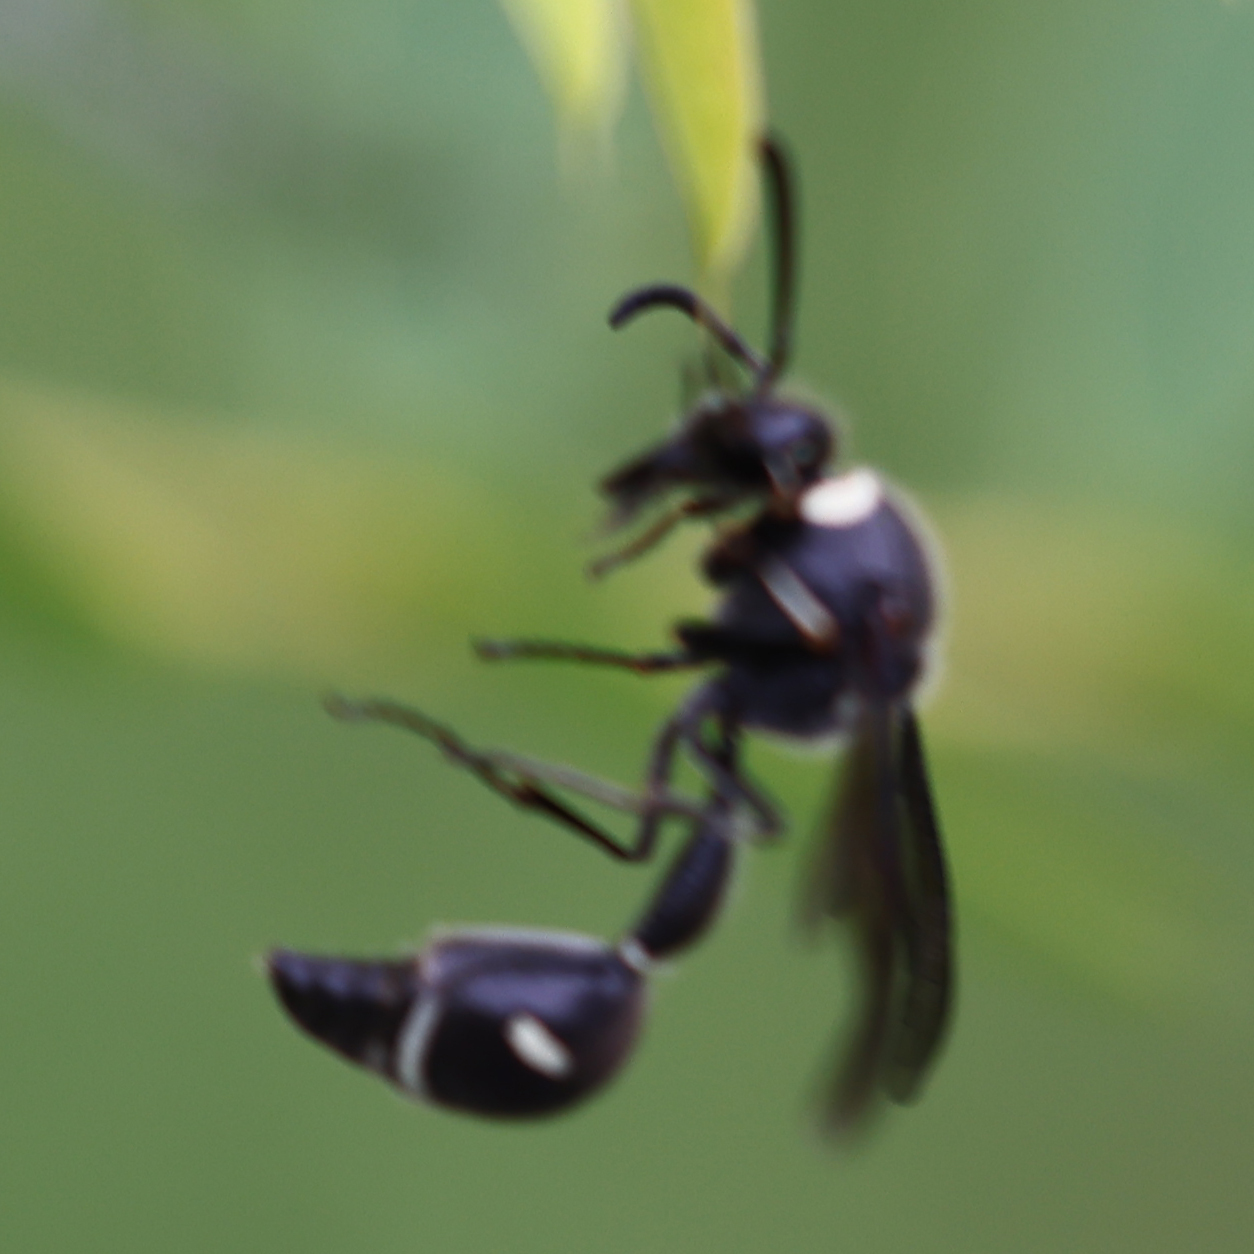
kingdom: Animalia
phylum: Arthropoda
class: Insecta
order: Hymenoptera
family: Vespidae
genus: Eumenes
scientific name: Eumenes fraternus
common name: Fraternal potter wasp
